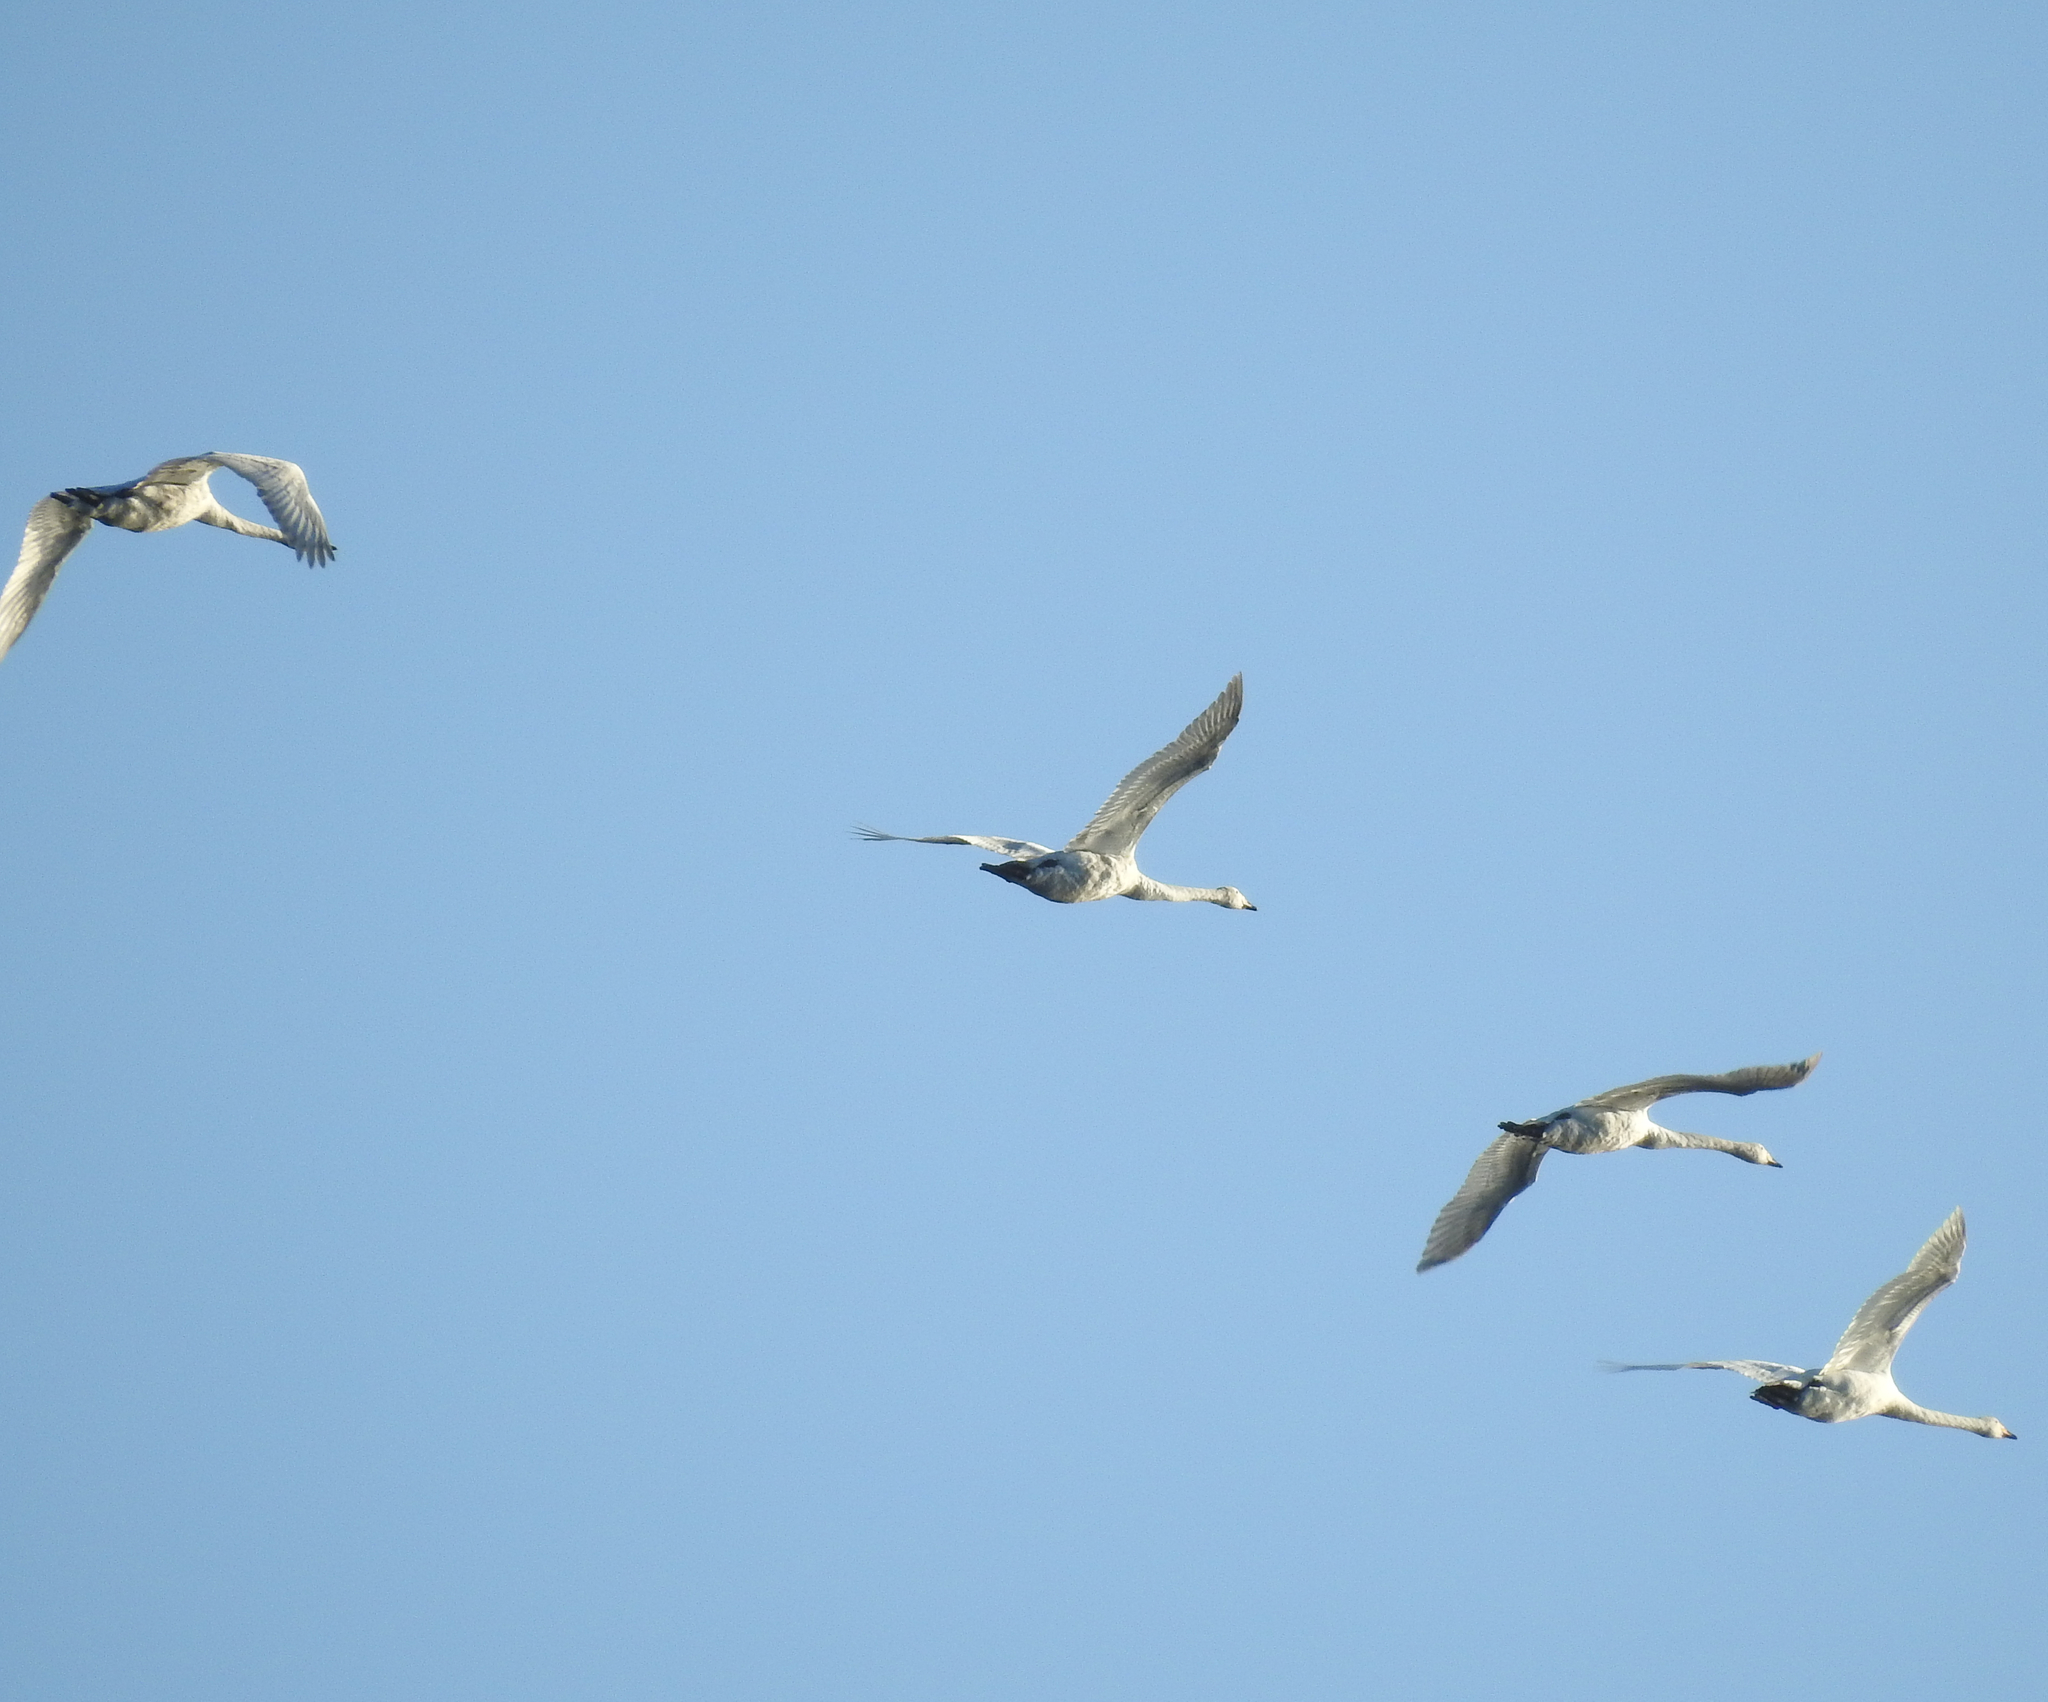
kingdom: Animalia
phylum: Chordata
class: Aves
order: Anseriformes
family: Anatidae
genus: Cygnus
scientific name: Cygnus cygnus
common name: Whooper swan
